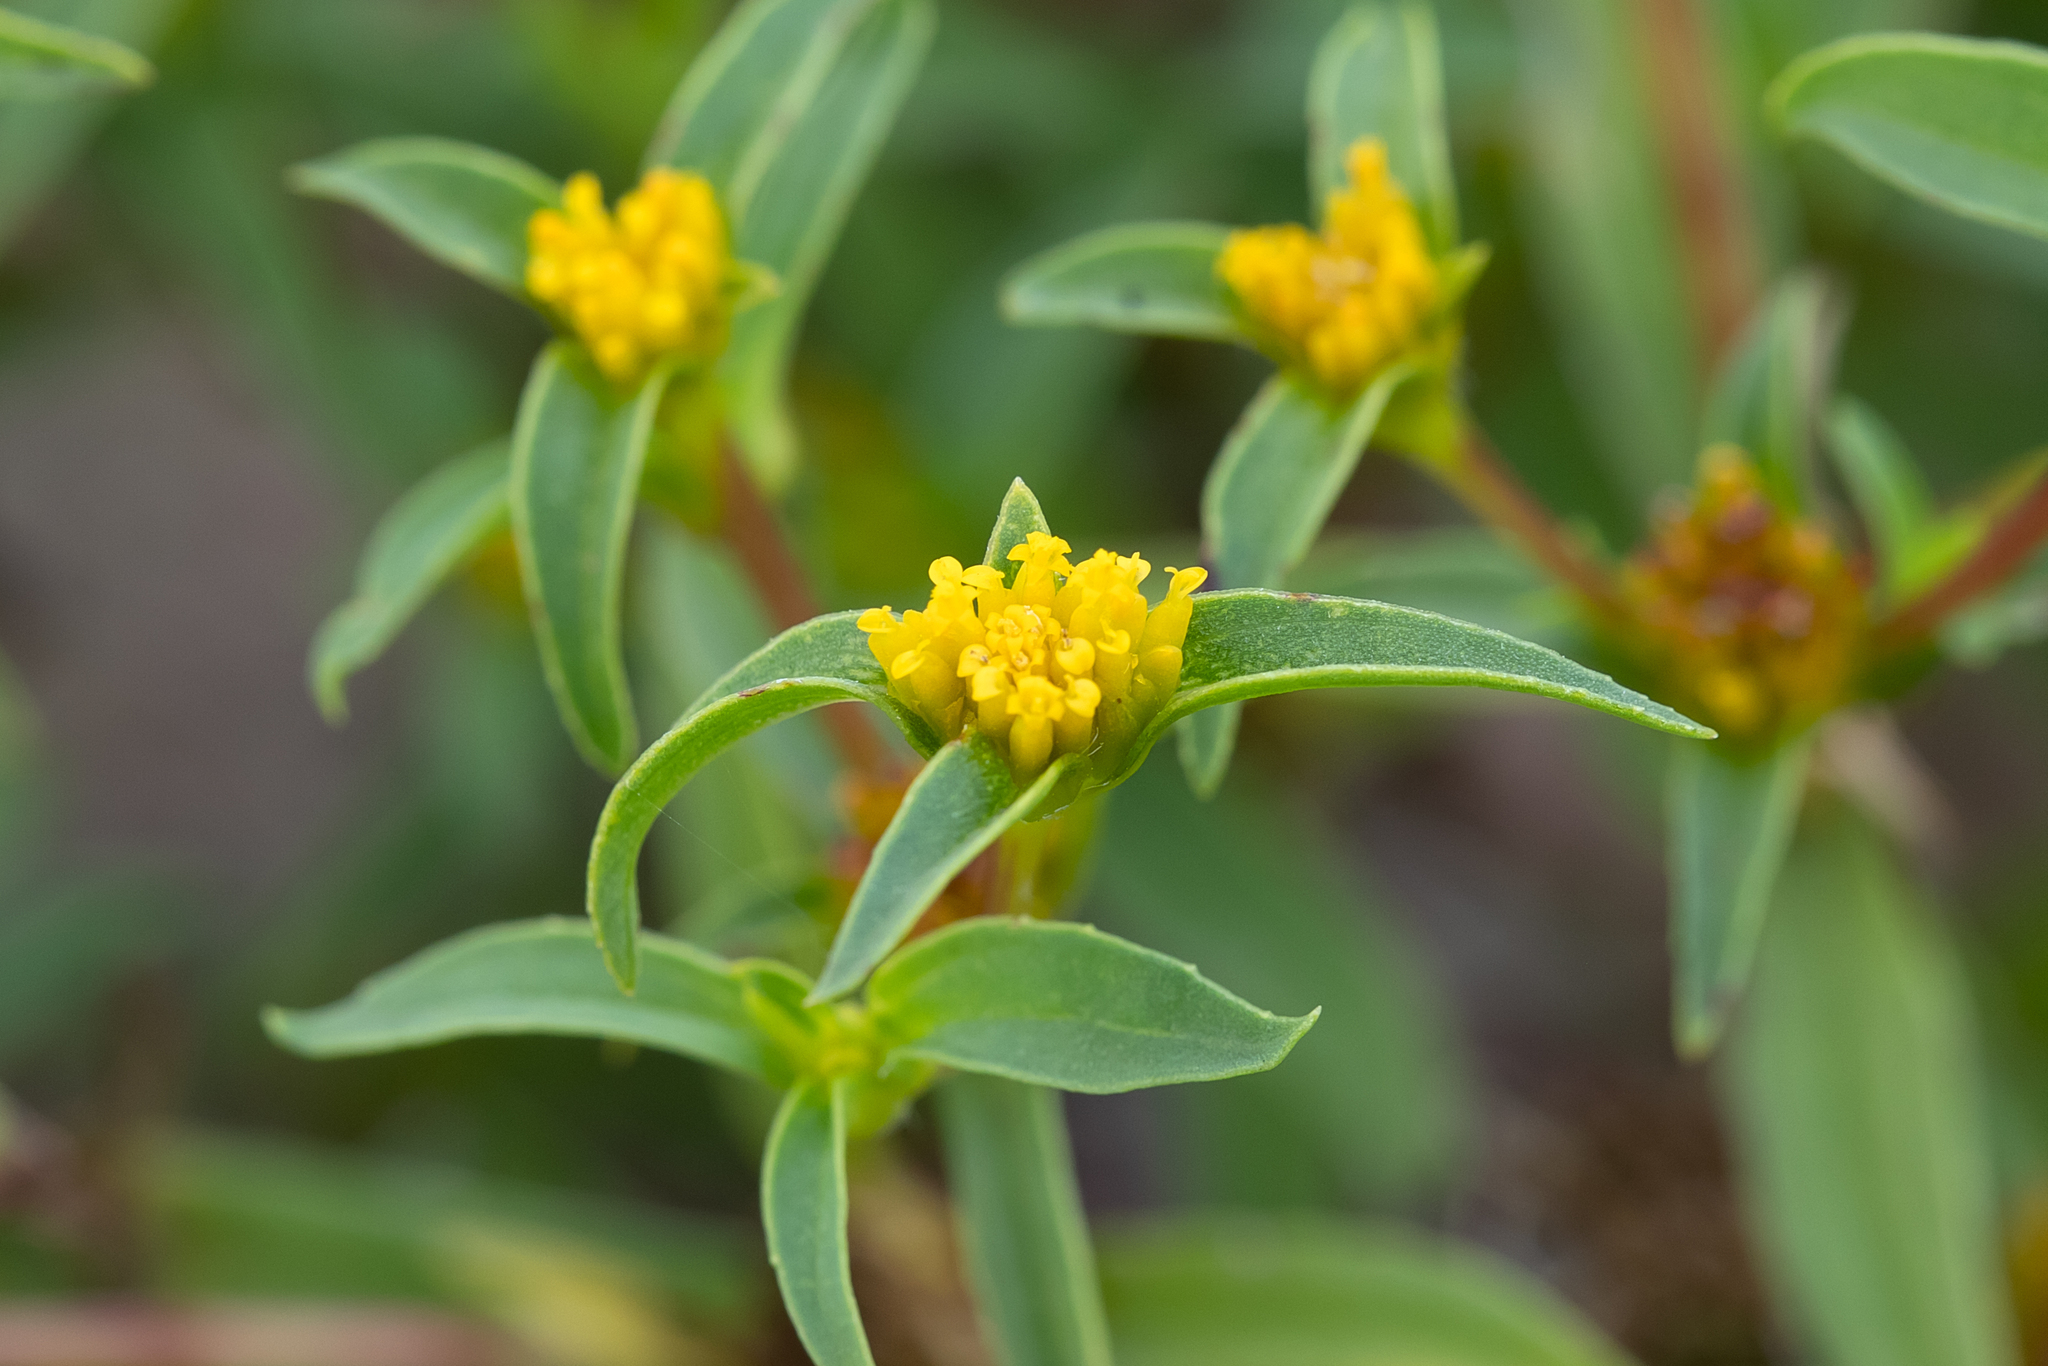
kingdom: Plantae
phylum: Tracheophyta
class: Magnoliopsida
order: Asterales
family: Asteraceae
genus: Flaveria
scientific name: Flaveria trinervia
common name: Clustered yellowtops
